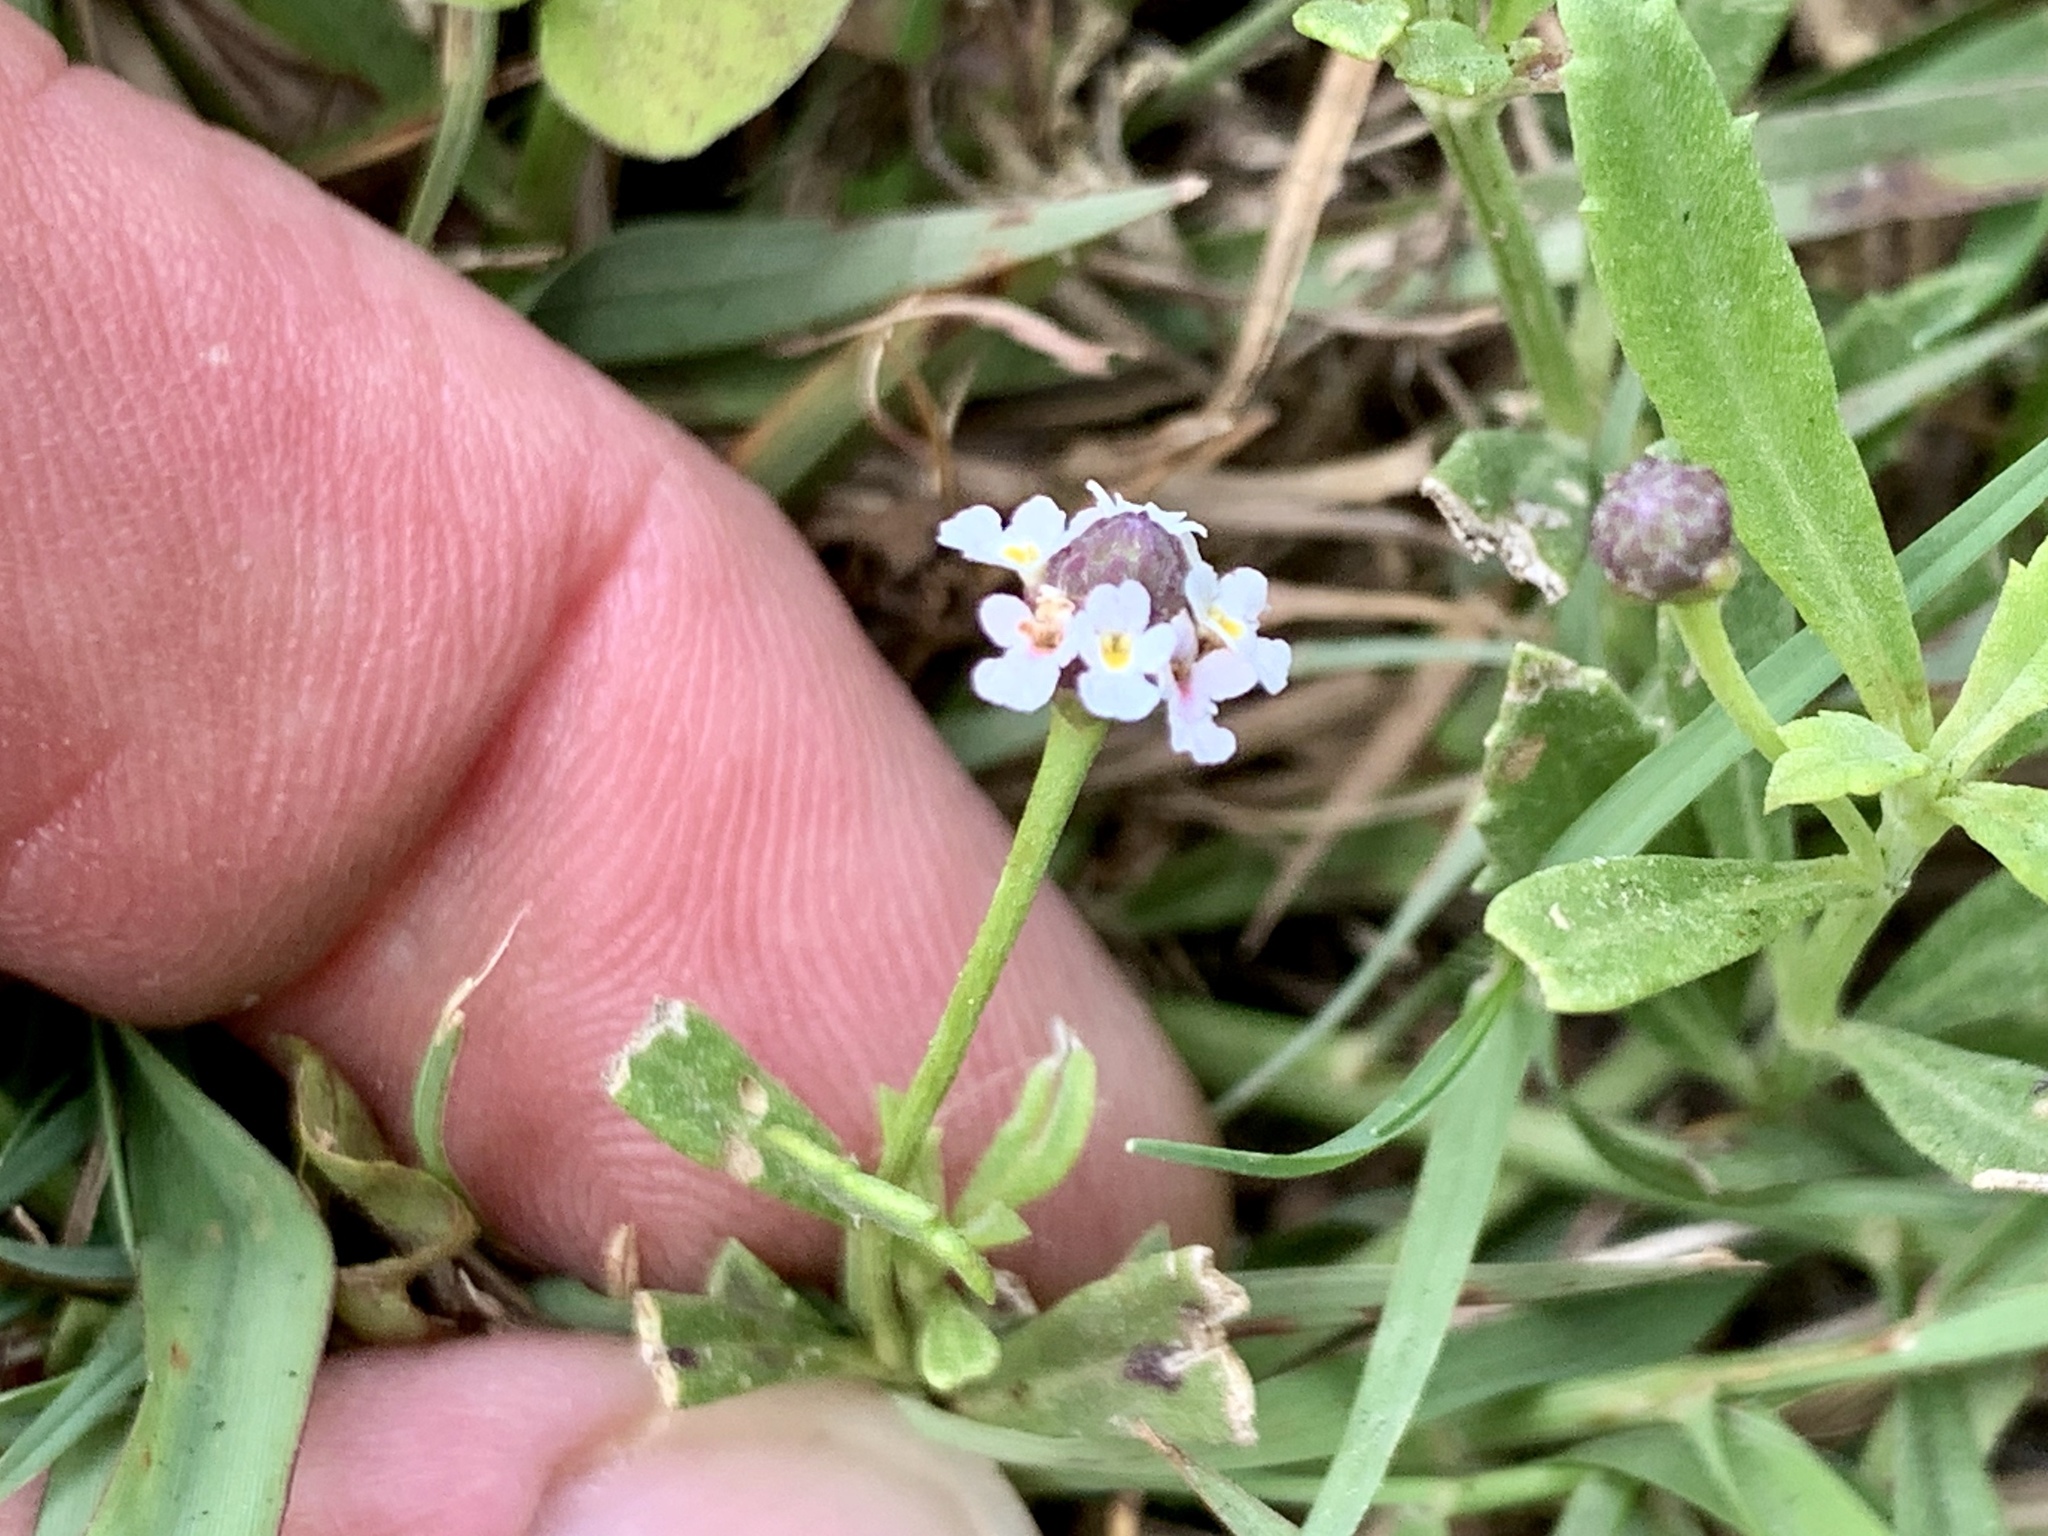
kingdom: Plantae
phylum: Tracheophyta
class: Magnoliopsida
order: Lamiales
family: Verbenaceae
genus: Phyla
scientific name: Phyla nodiflora
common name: Frogfruit
